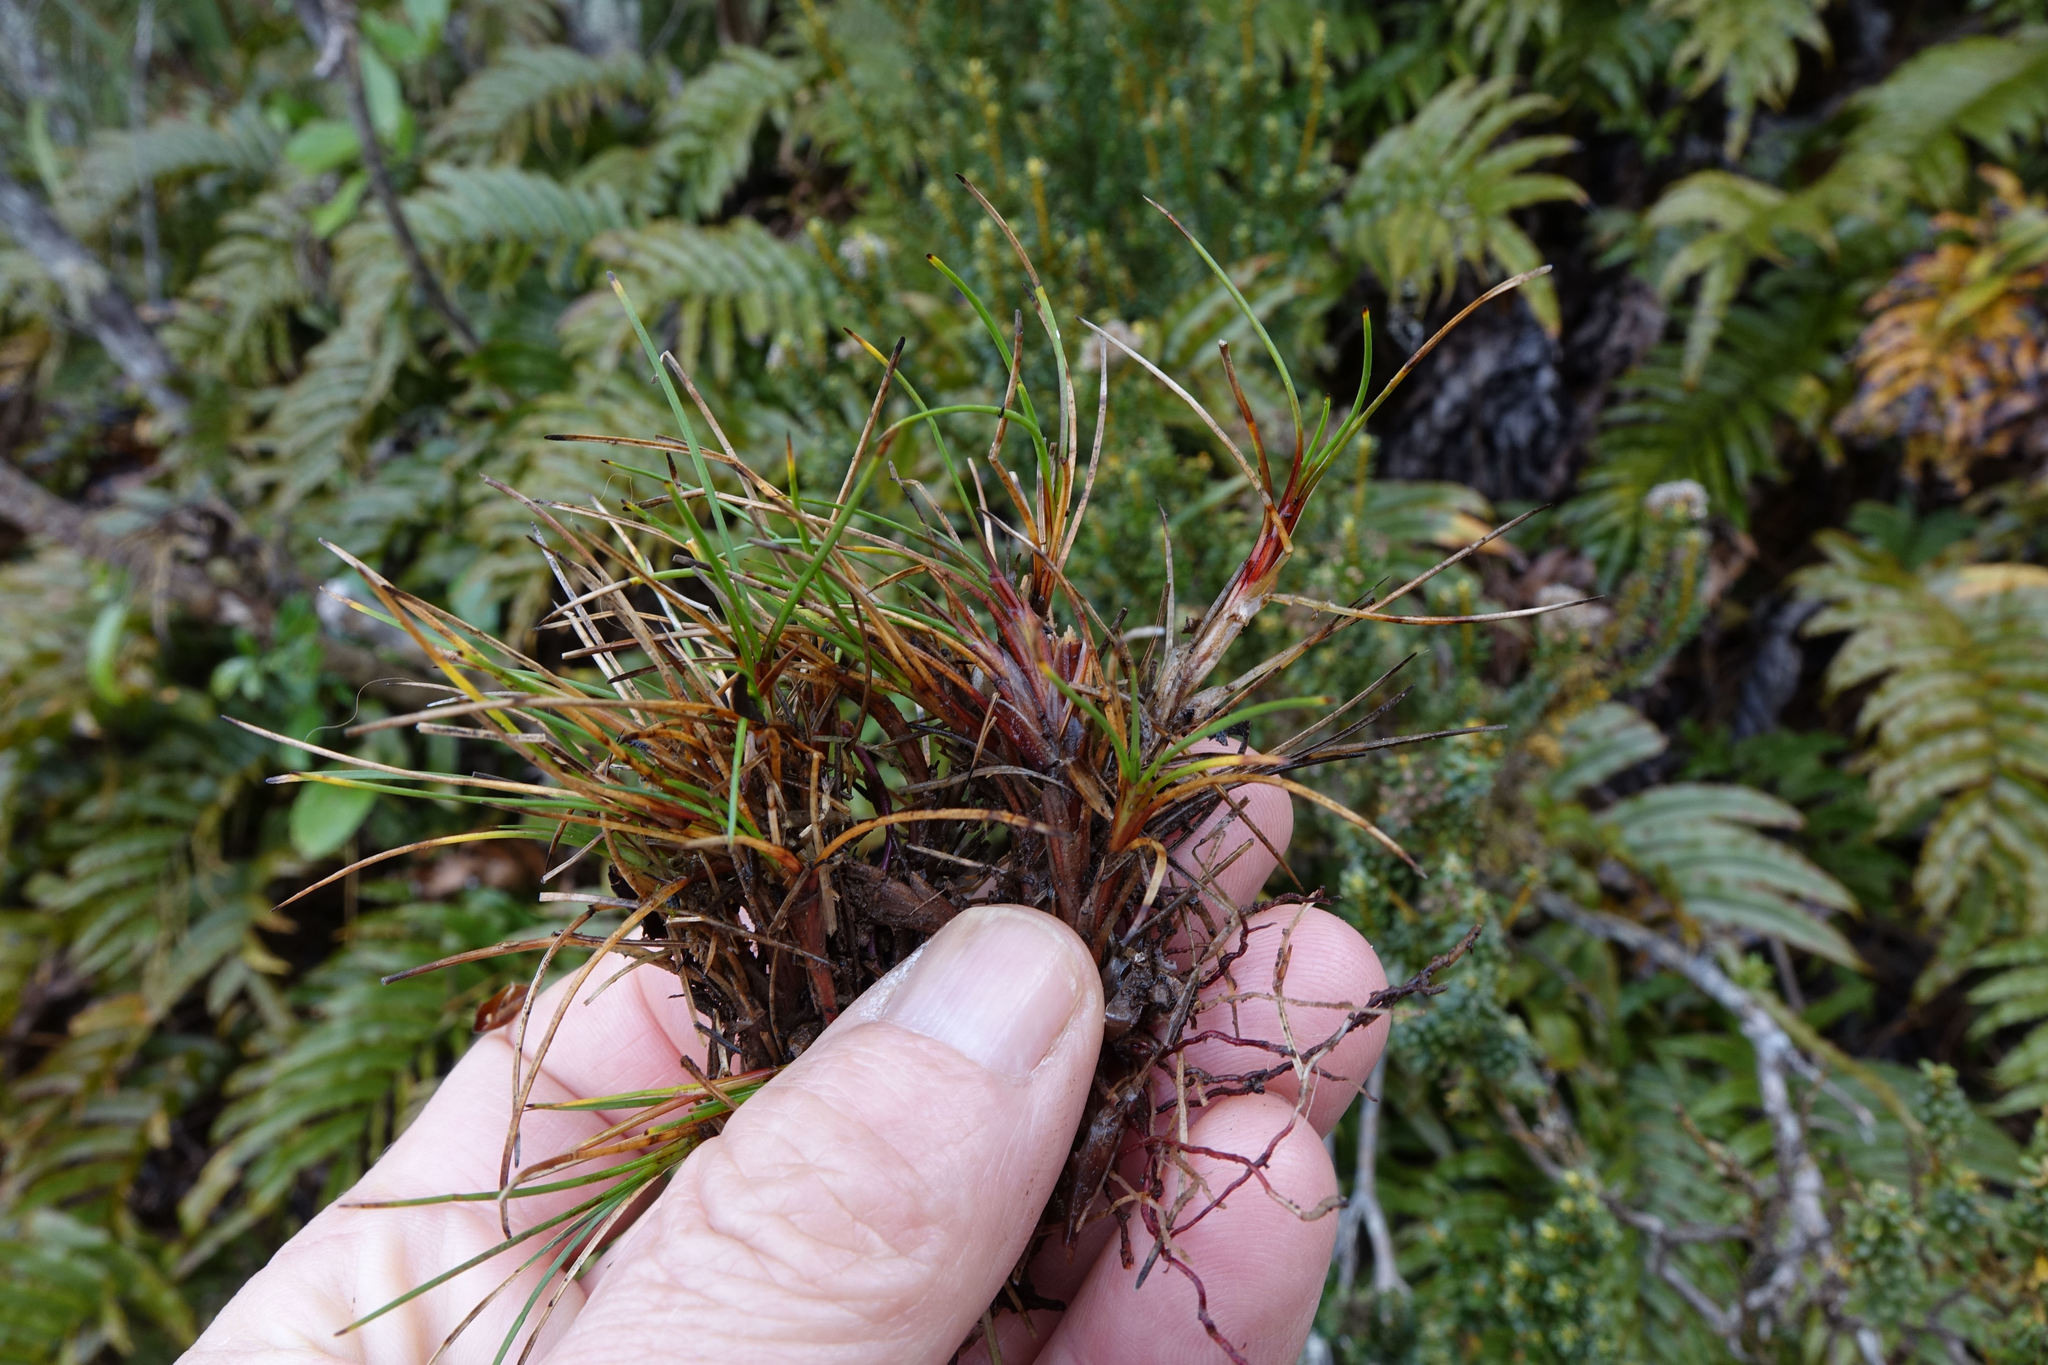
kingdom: Plantae
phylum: Tracheophyta
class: Liliopsida
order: Poales
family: Cyperaceae
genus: Oreobolus
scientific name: Oreobolus strictus
